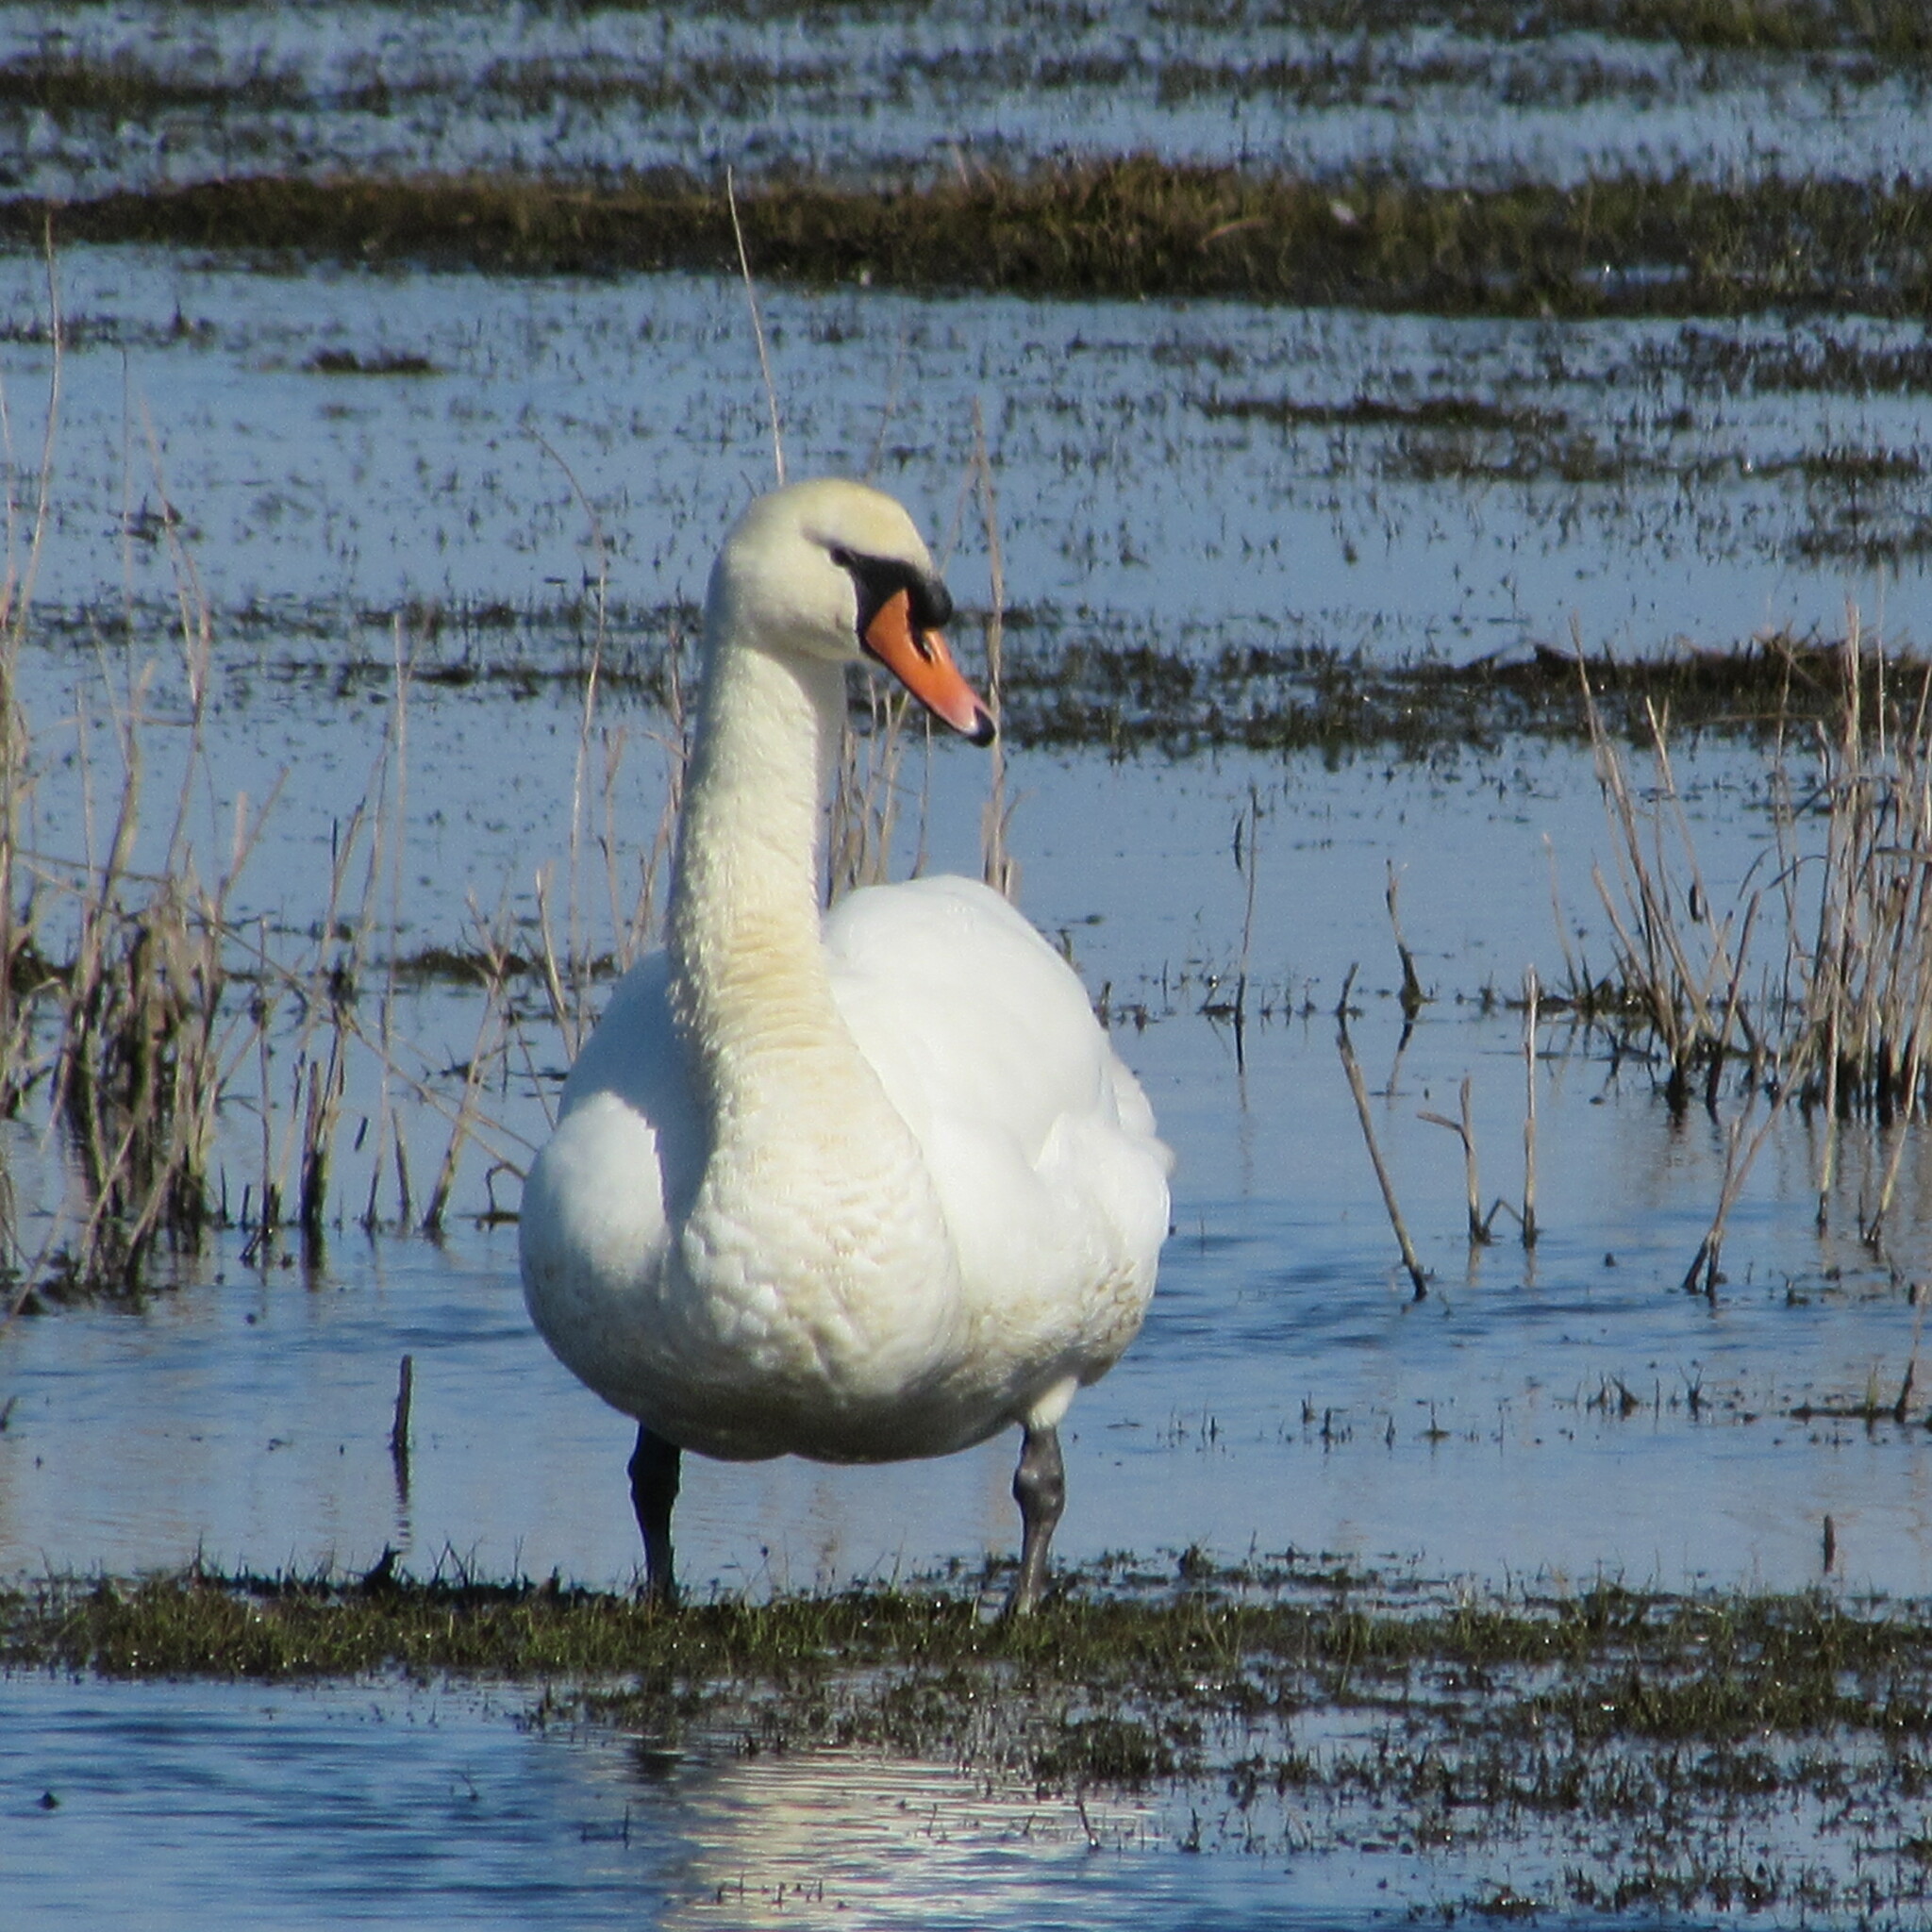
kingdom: Animalia
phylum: Chordata
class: Aves
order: Anseriformes
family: Anatidae
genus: Cygnus
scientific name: Cygnus olor
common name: Mute swan
